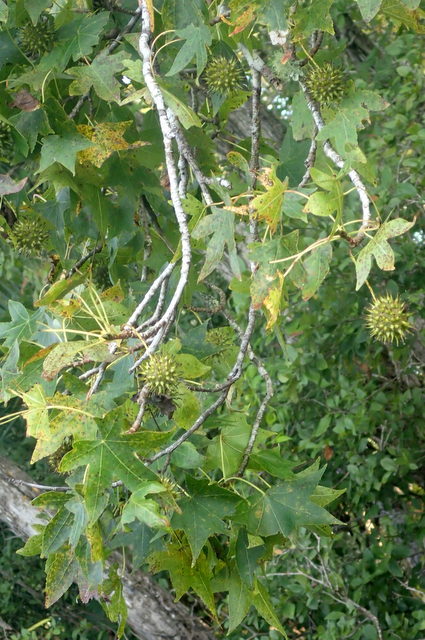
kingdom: Plantae
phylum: Tracheophyta
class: Magnoliopsida
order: Saxifragales
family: Altingiaceae
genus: Liquidambar
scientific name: Liquidambar styraciflua
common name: Sweet gum
